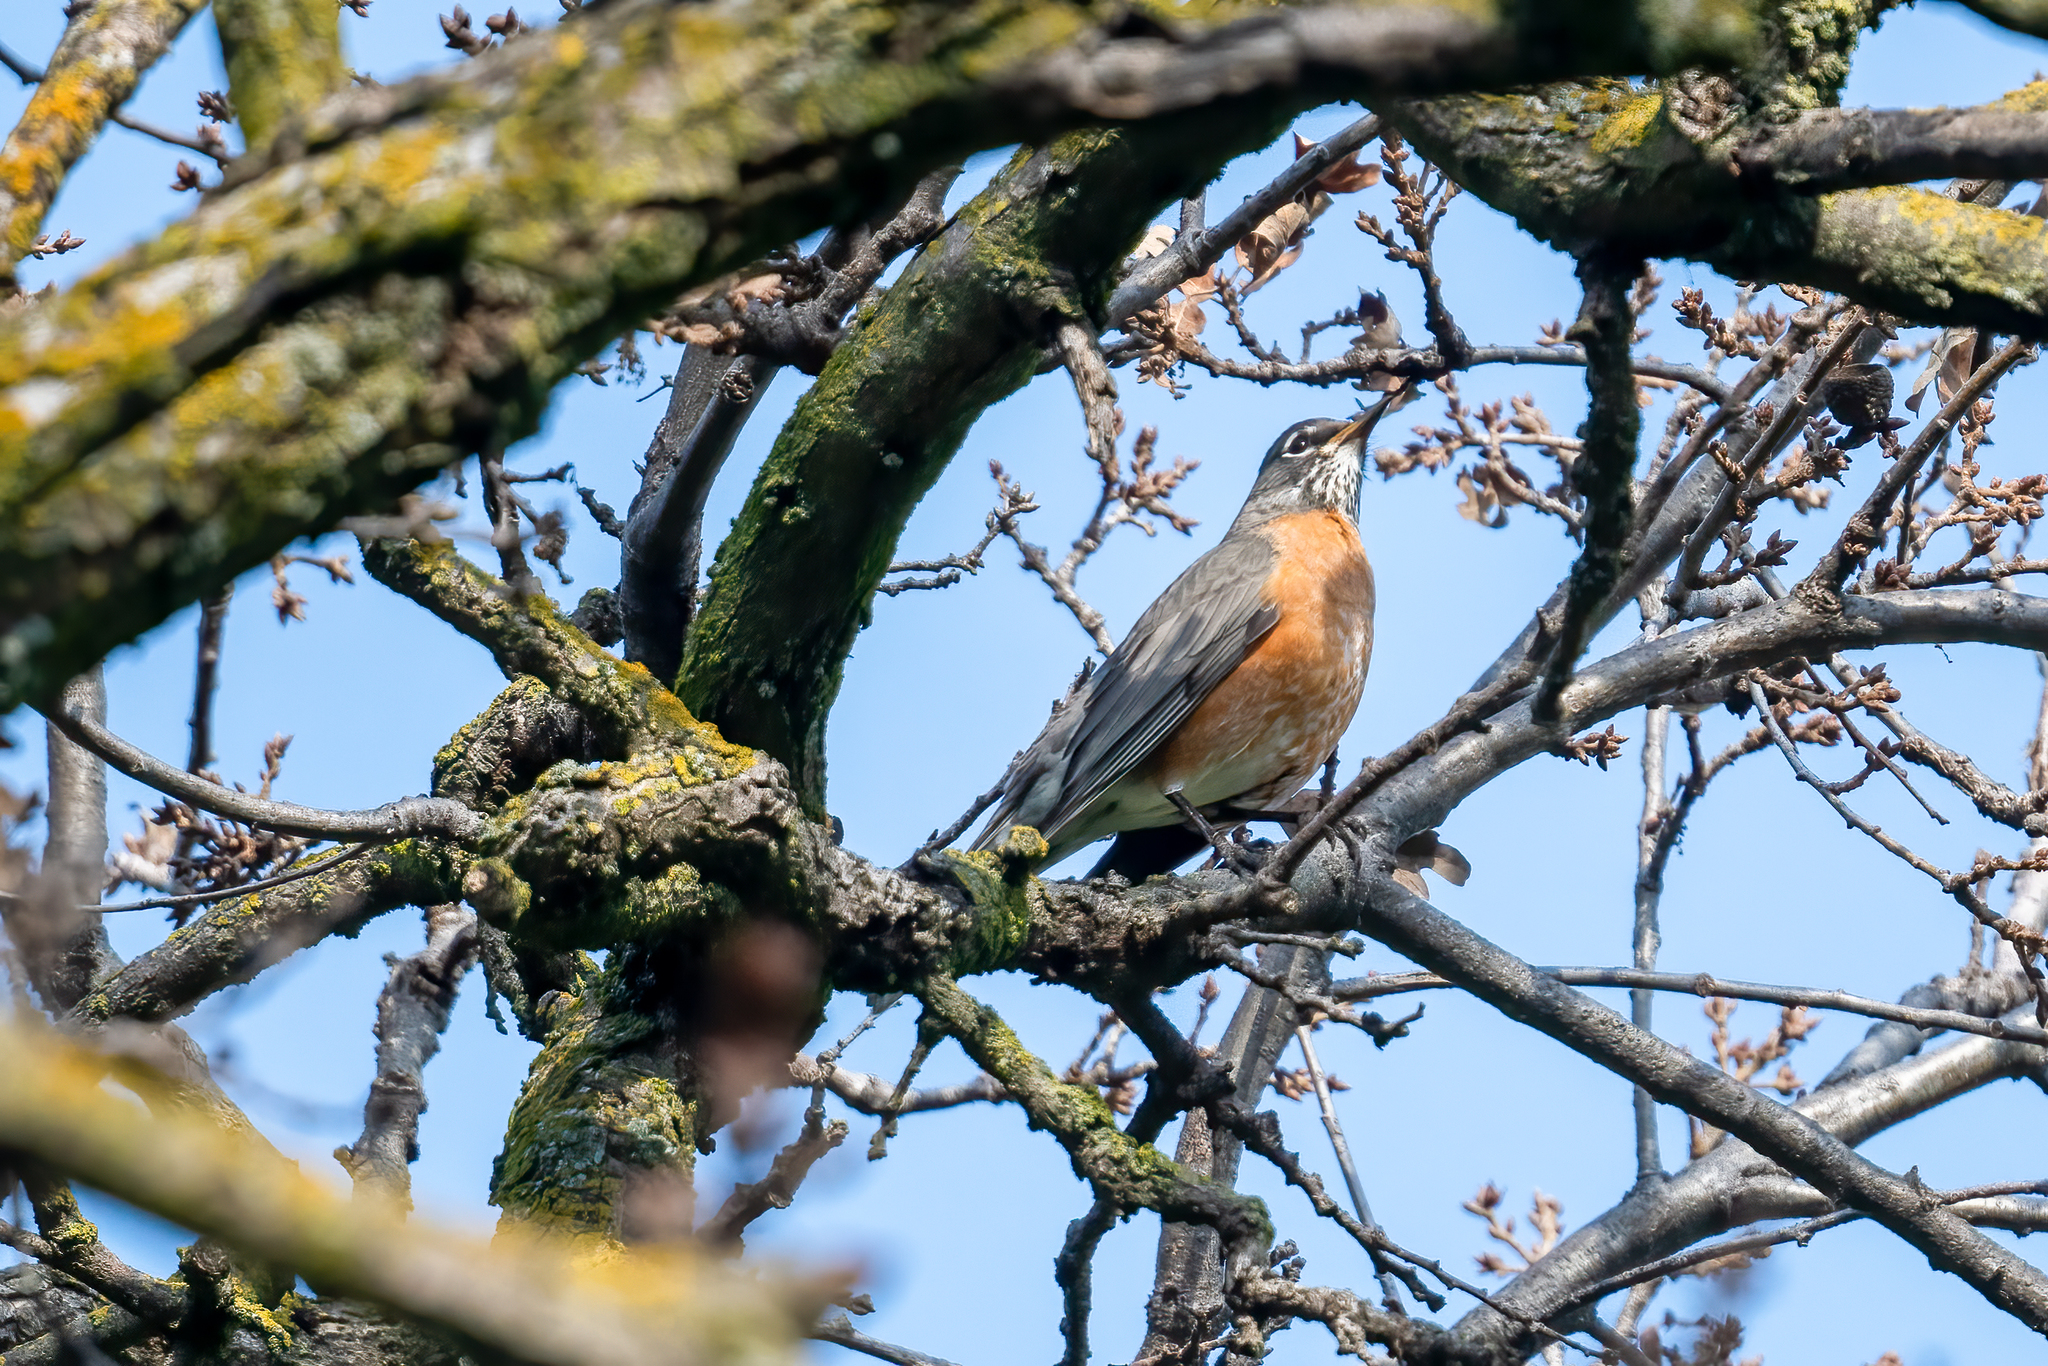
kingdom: Animalia
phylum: Chordata
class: Aves
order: Passeriformes
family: Turdidae
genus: Turdus
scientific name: Turdus migratorius
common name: American robin
